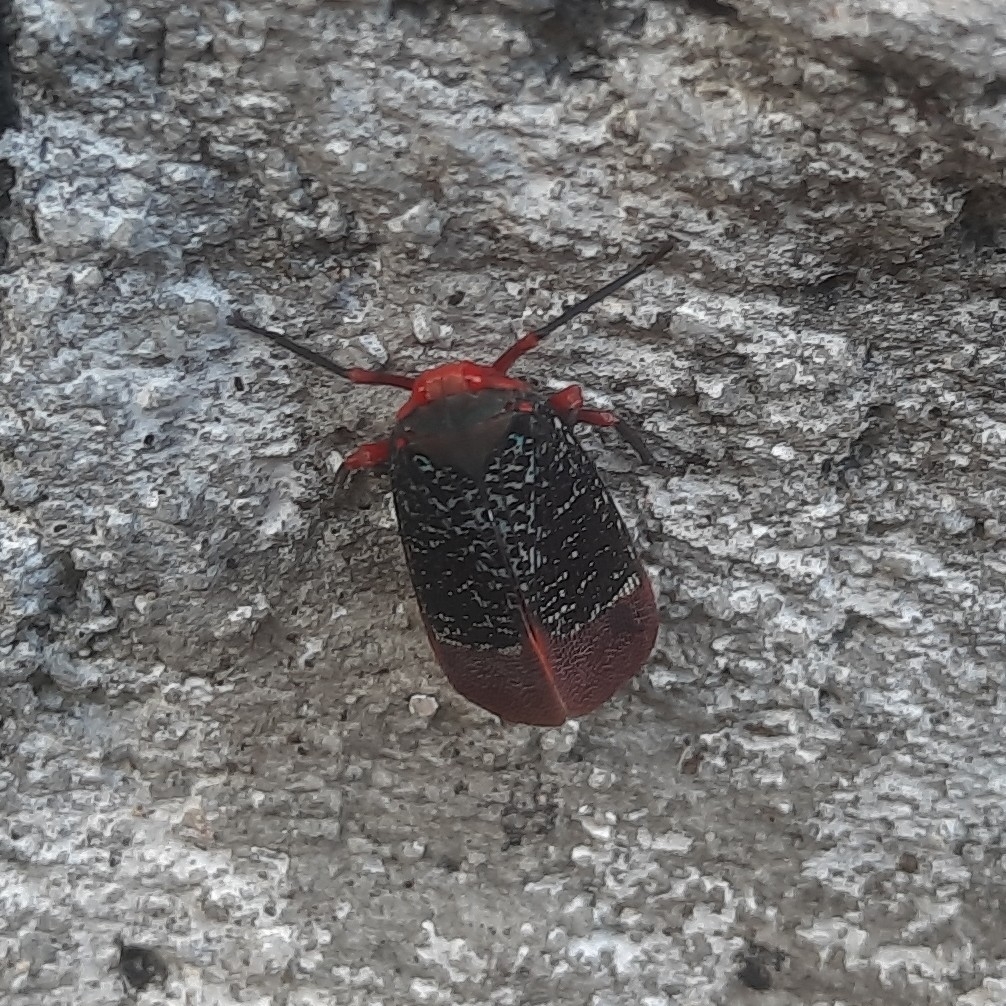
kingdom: Animalia
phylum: Arthropoda
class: Insecta
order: Hemiptera
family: Fulgoridae
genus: Kalidasa
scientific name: Kalidasa lanata
